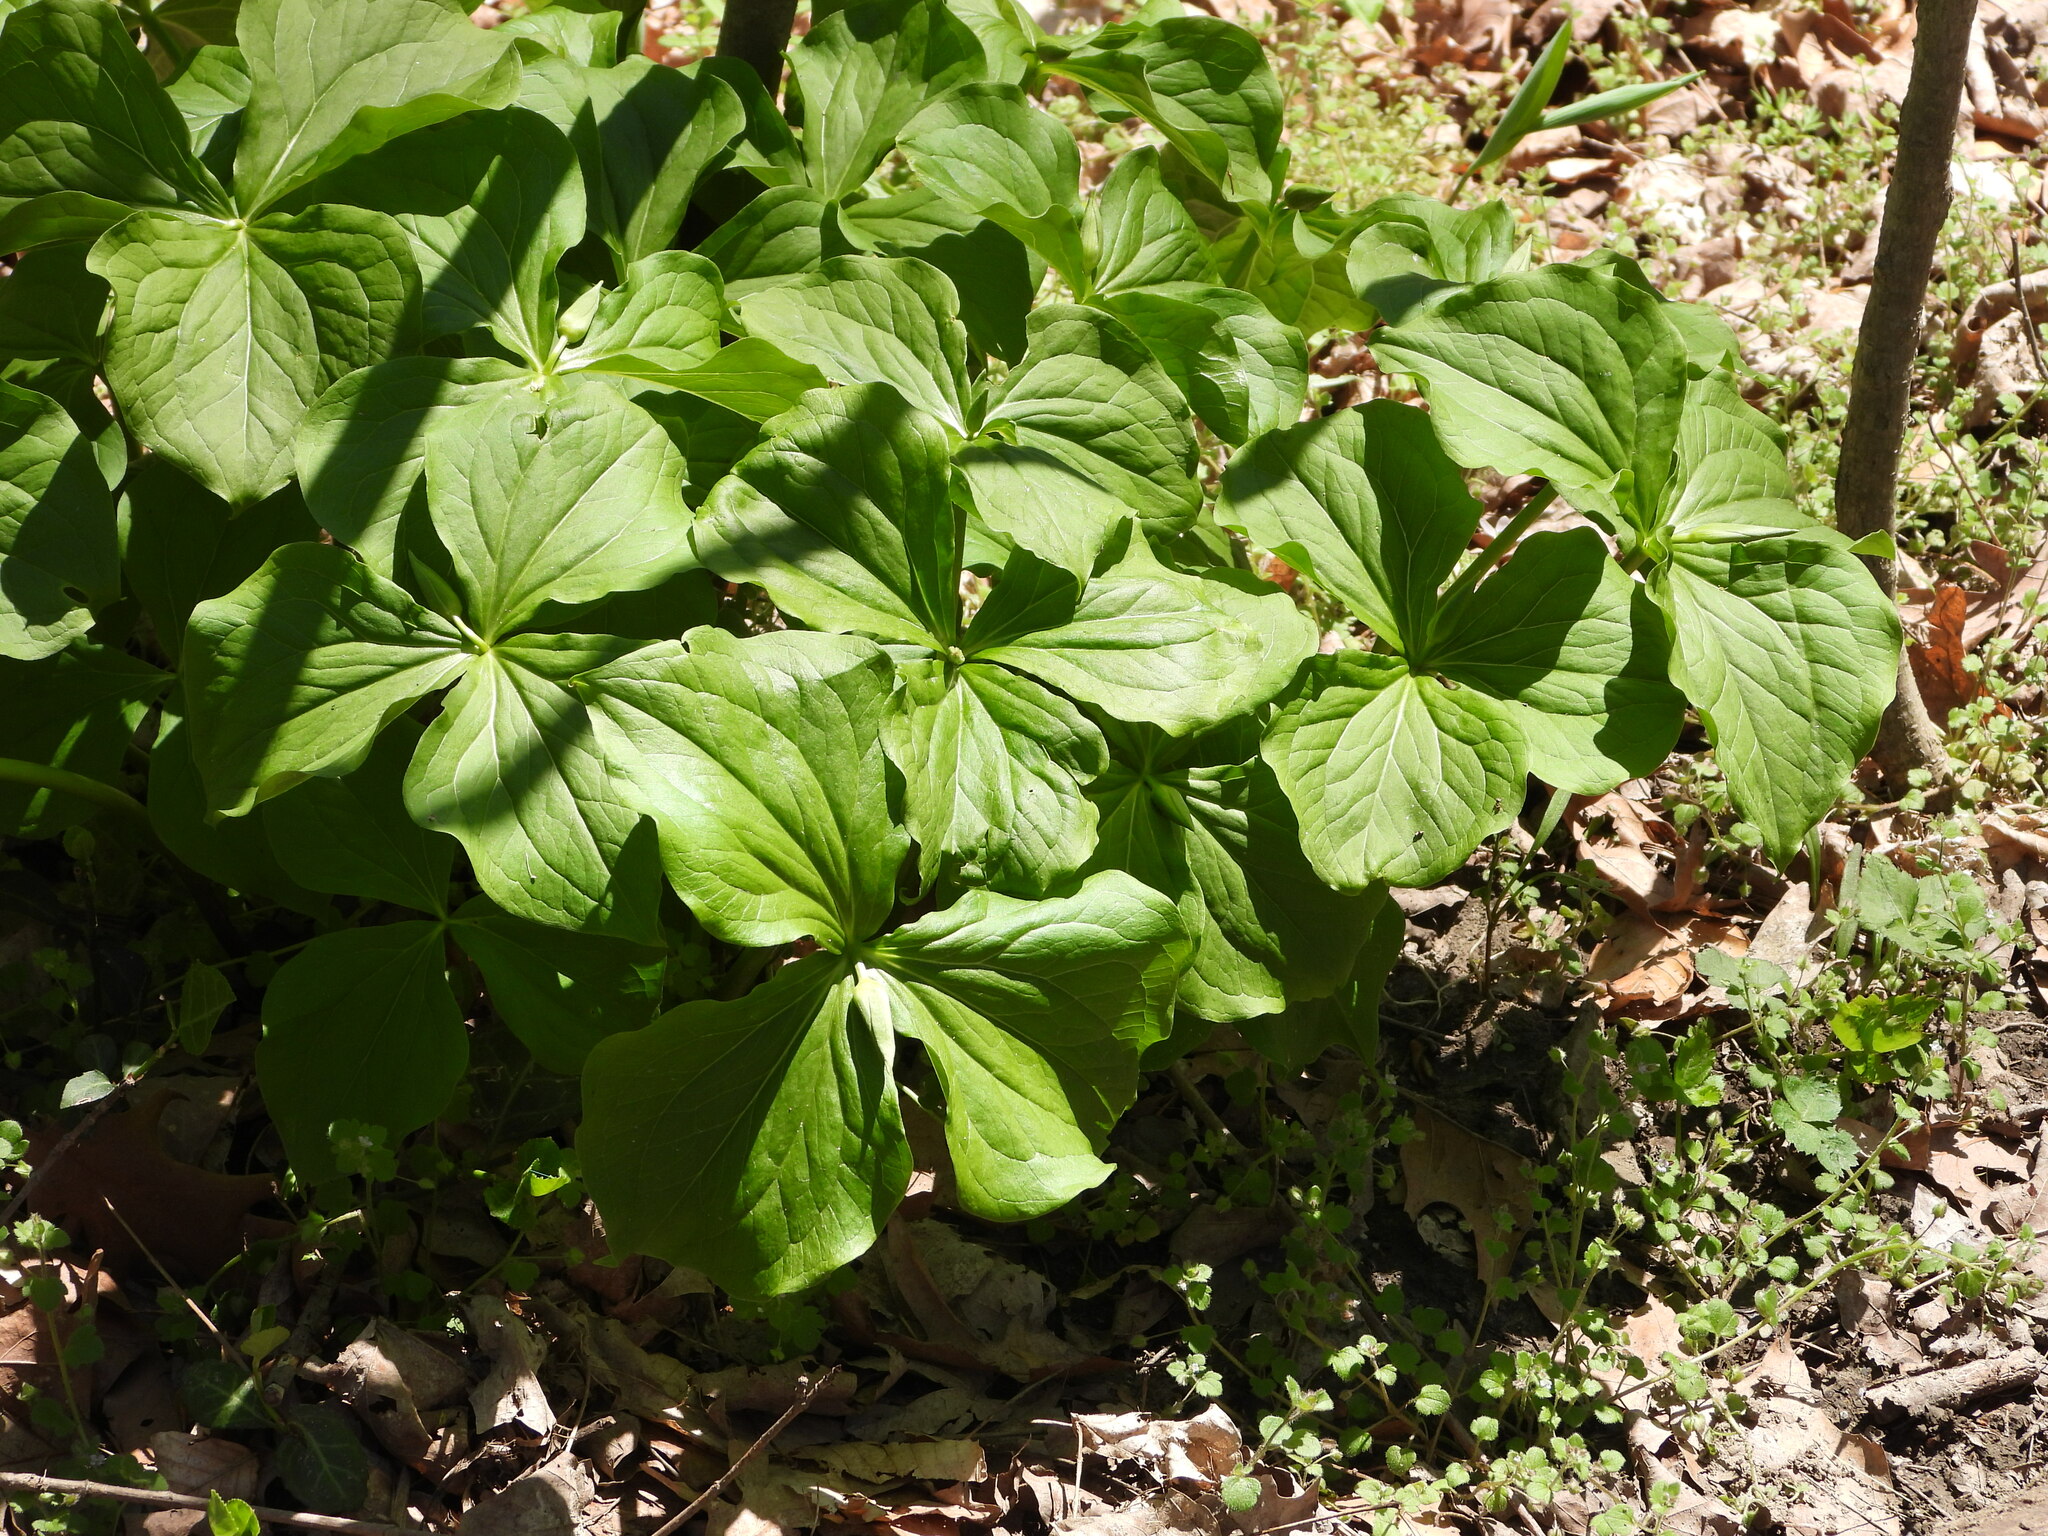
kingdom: Plantae
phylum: Tracheophyta
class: Liliopsida
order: Liliales
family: Melanthiaceae
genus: Trillium
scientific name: Trillium flexipes
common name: Drooping trillium
